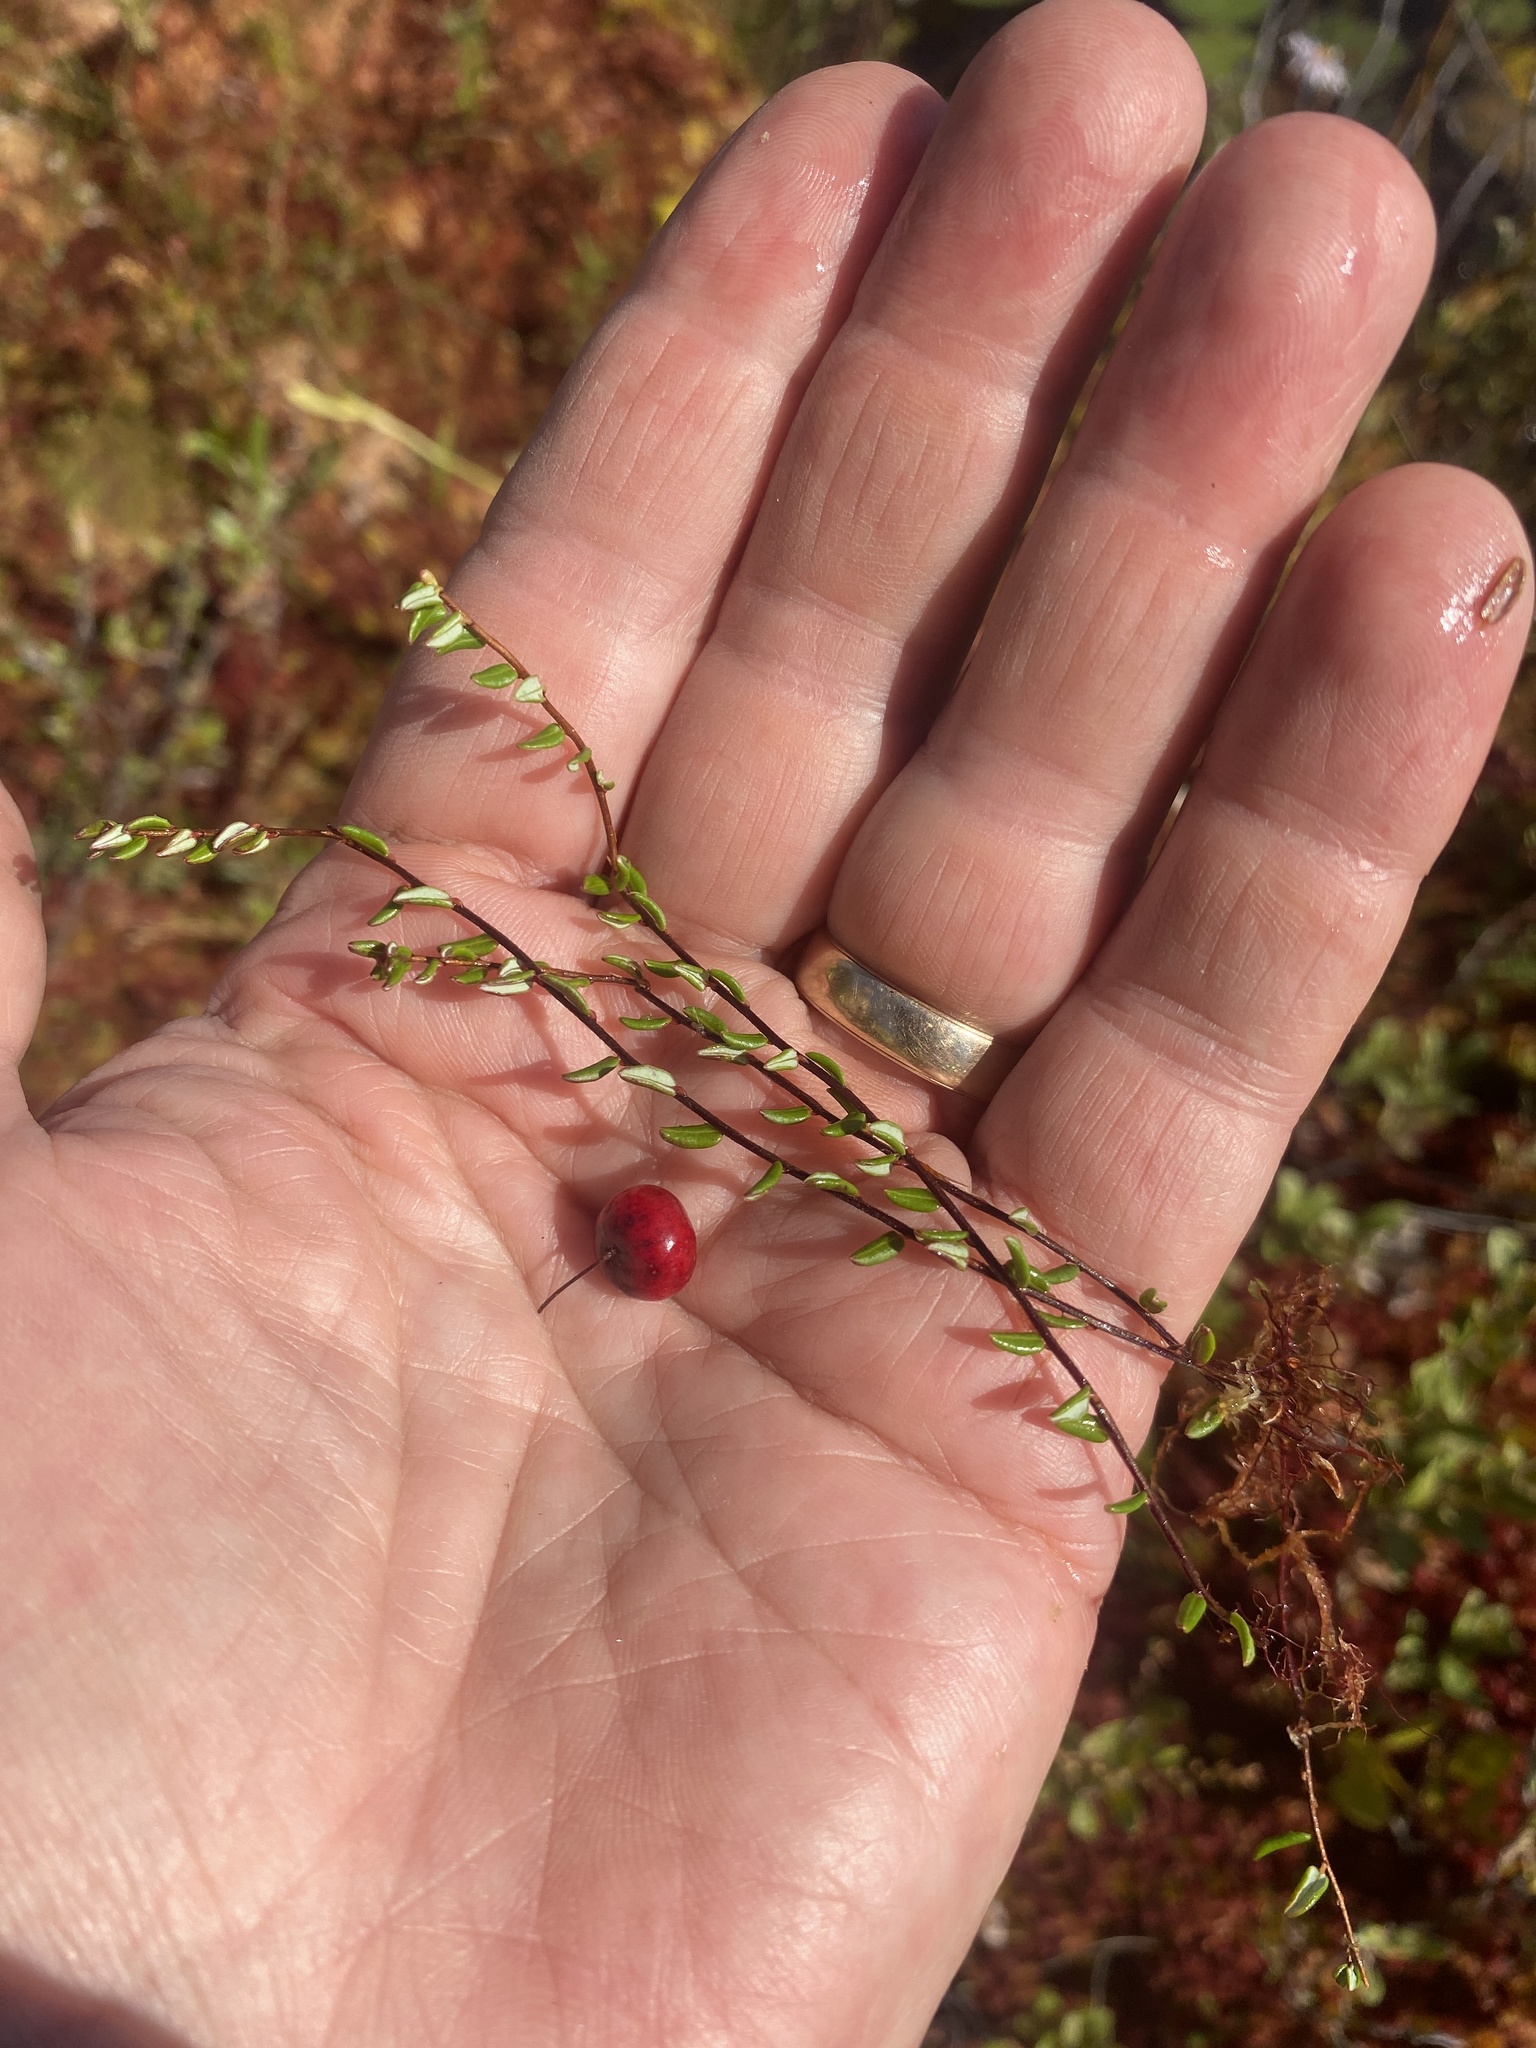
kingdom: Plantae
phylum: Tracheophyta
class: Magnoliopsida
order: Ericales
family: Ericaceae
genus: Vaccinium
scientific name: Vaccinium oxycoccos
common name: Cranberry
